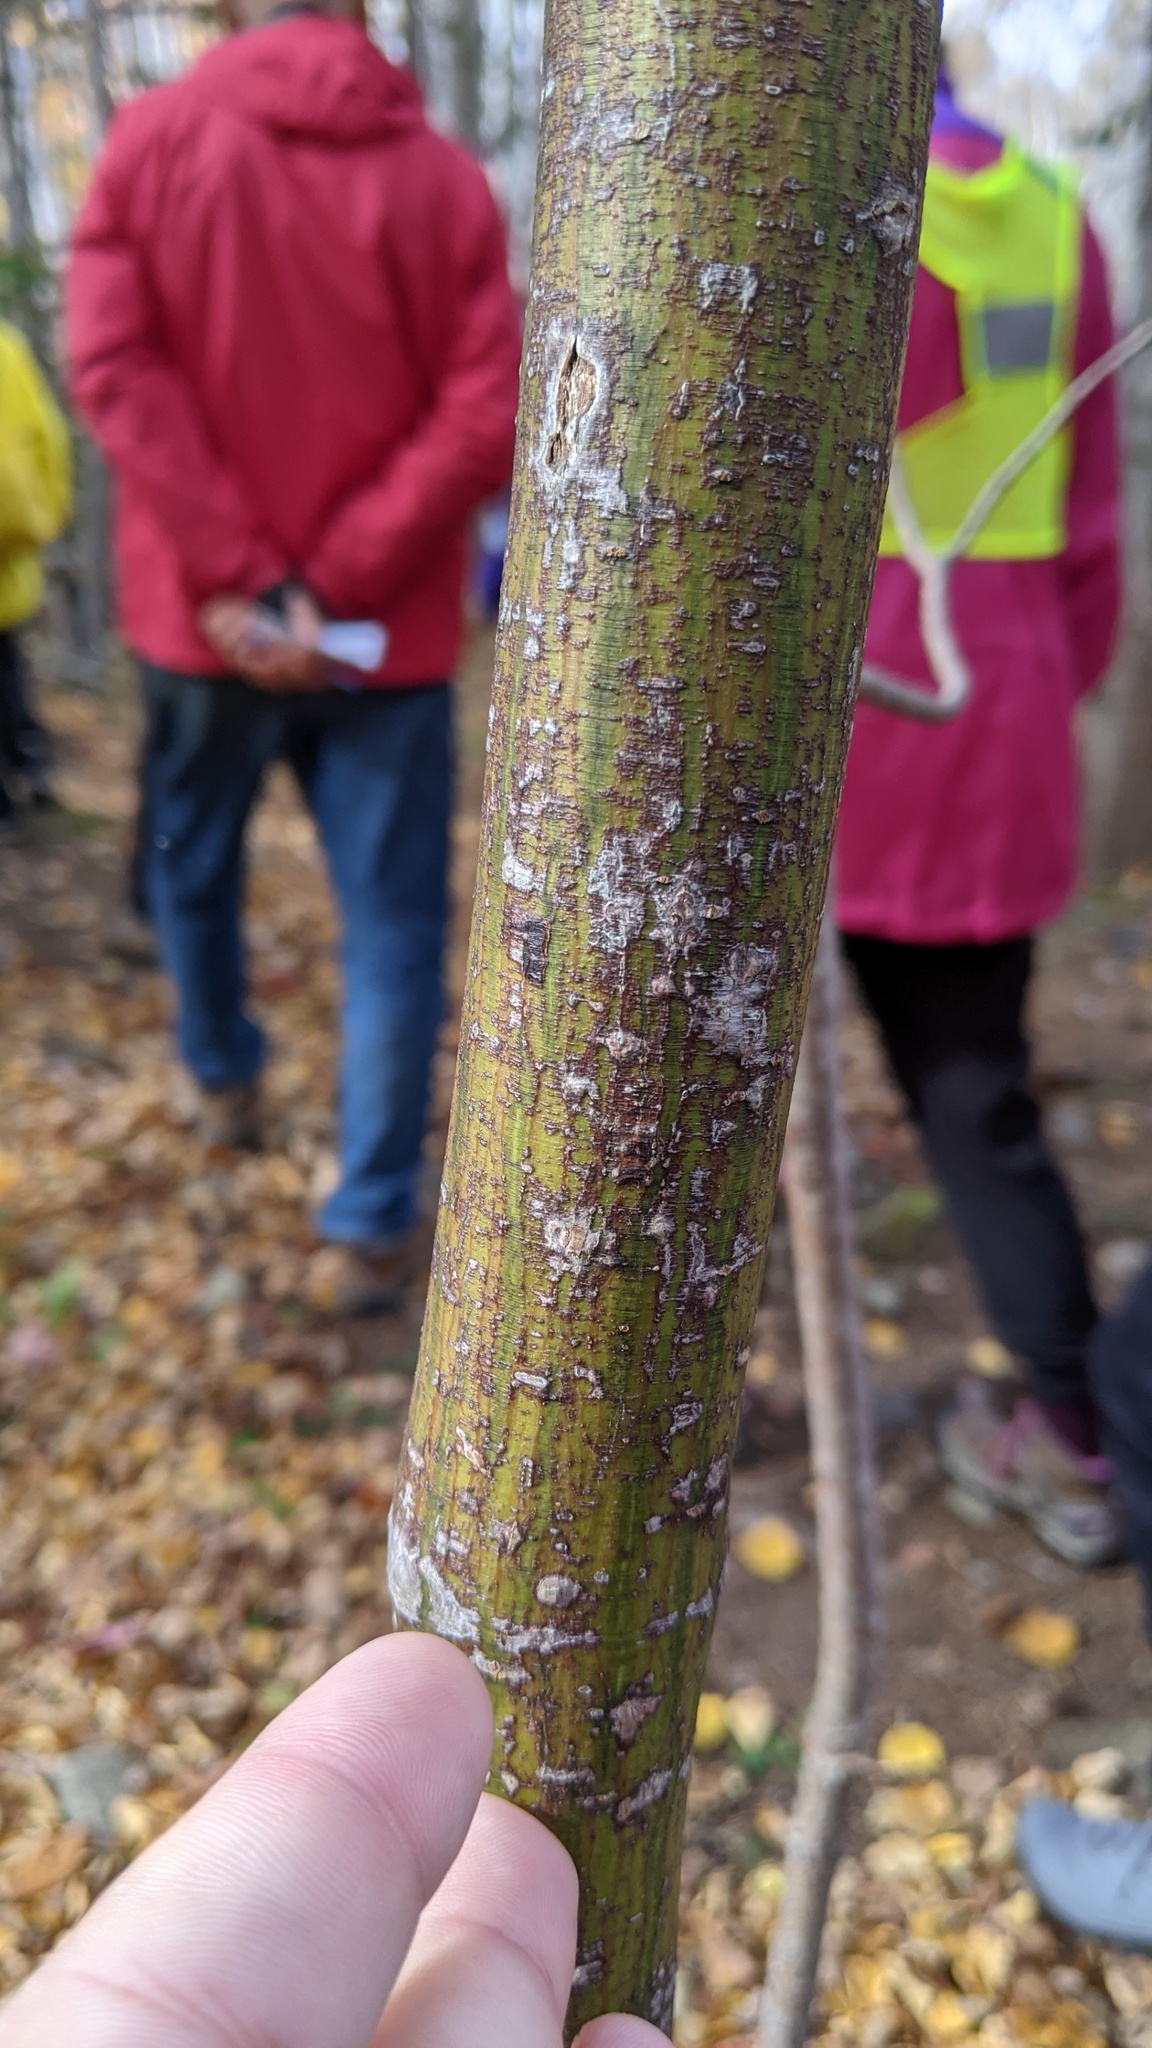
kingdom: Plantae
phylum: Tracheophyta
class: Magnoliopsida
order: Sapindales
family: Sapindaceae
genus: Acer
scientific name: Acer pensylvanicum
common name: Moosewood
